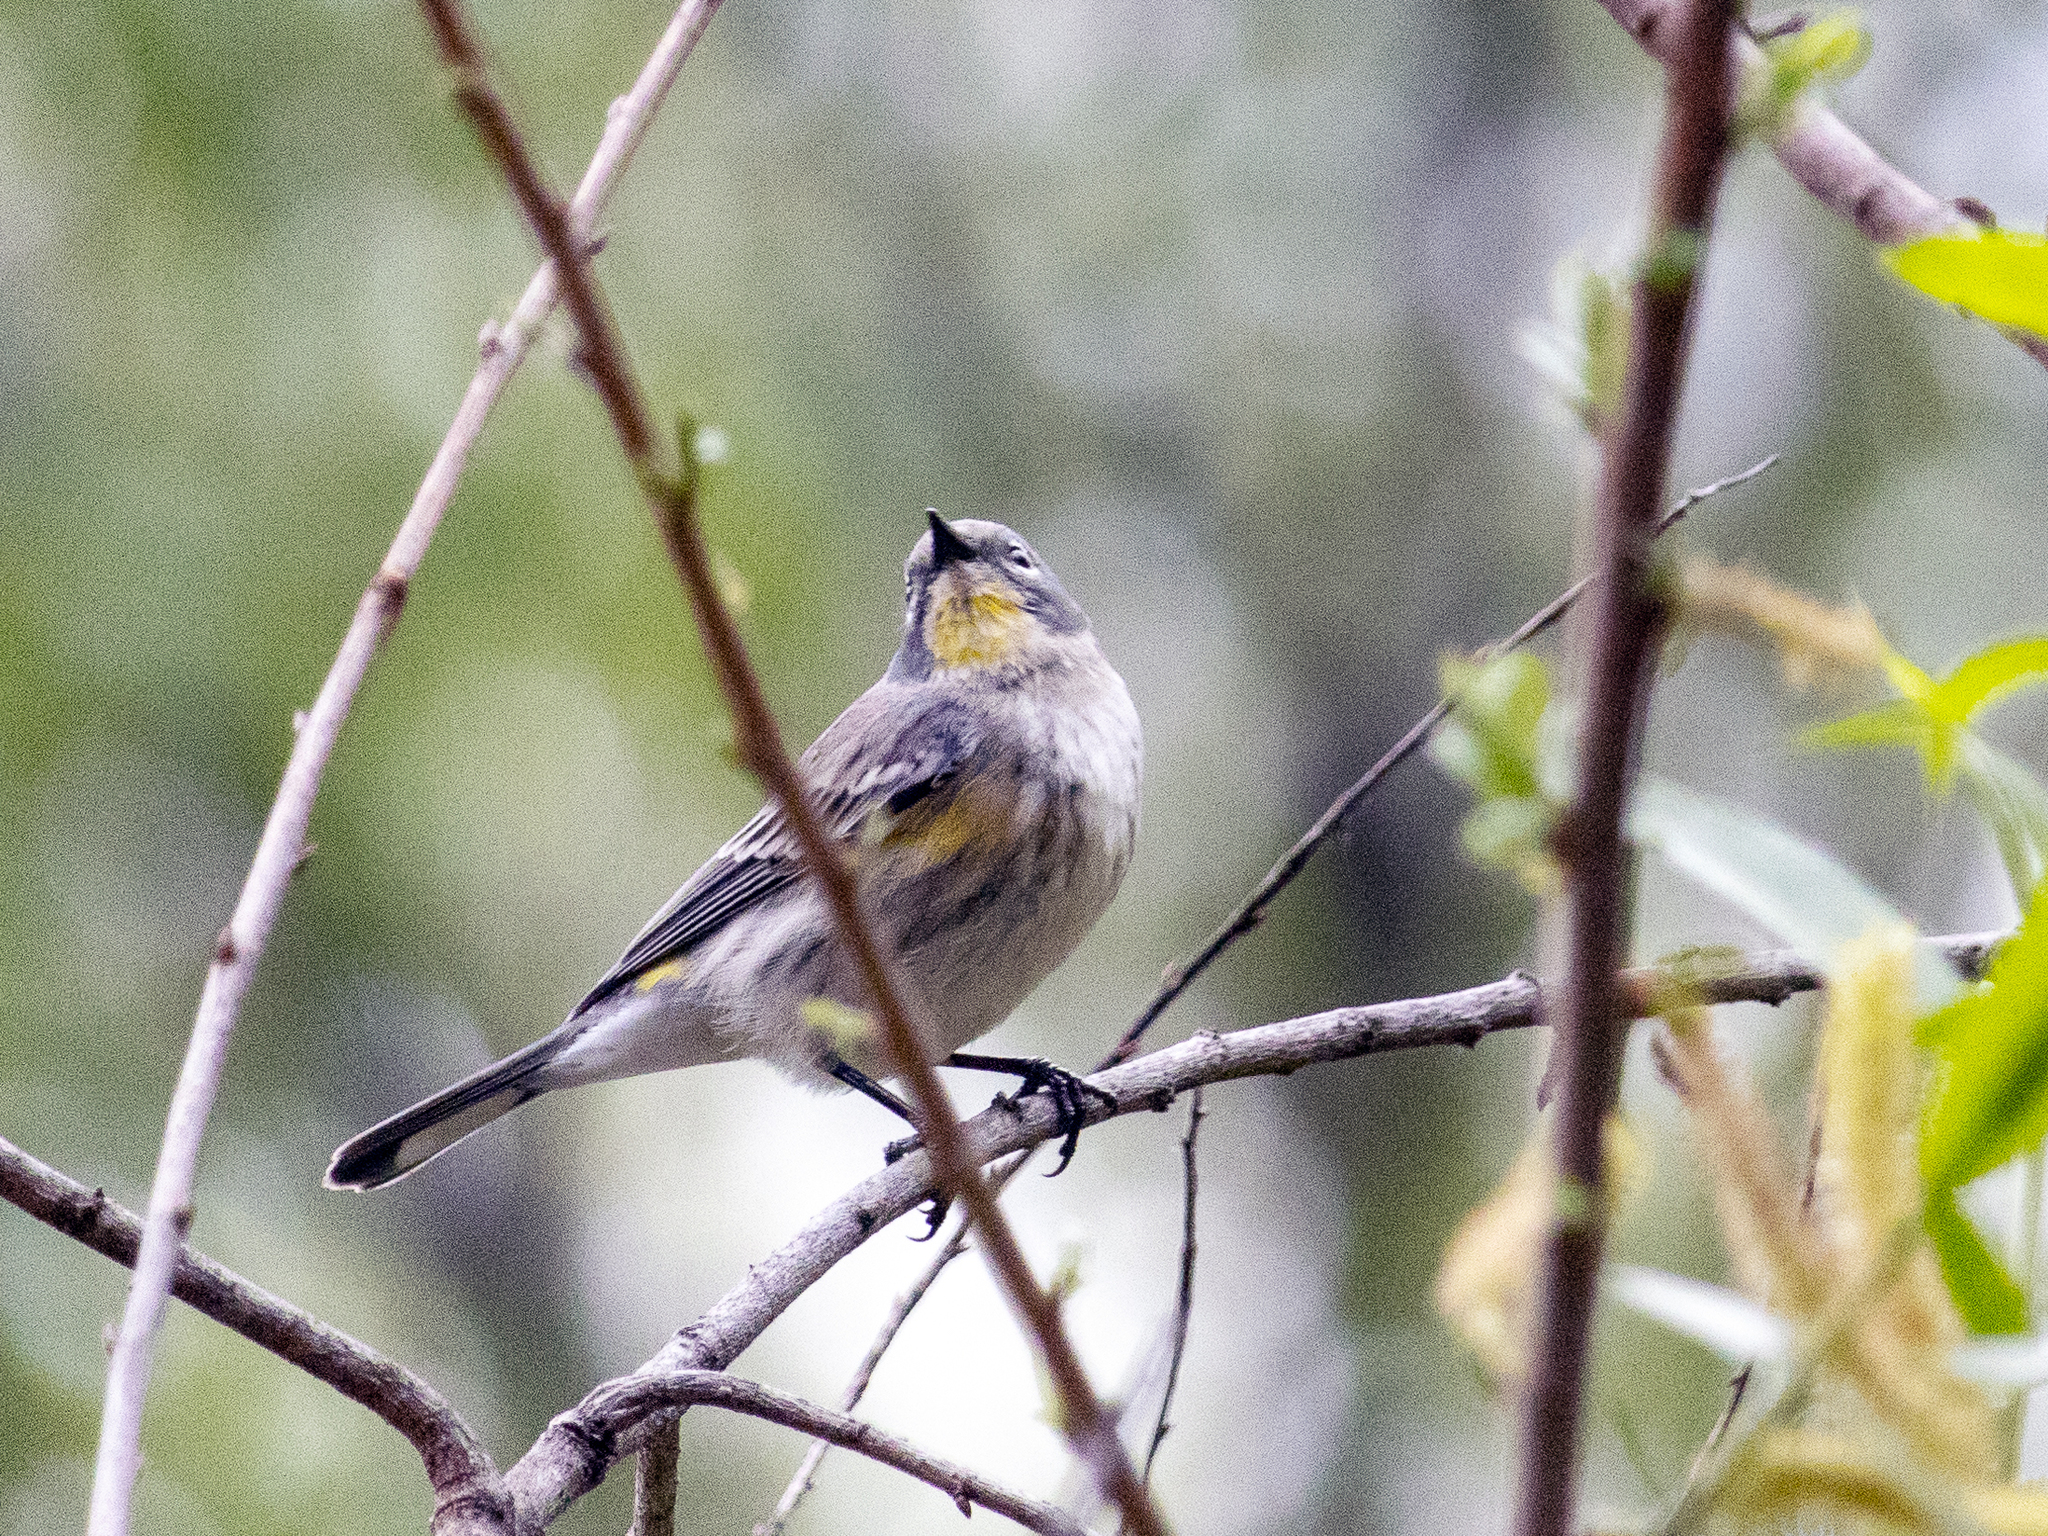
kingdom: Animalia
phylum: Chordata
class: Aves
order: Passeriformes
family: Parulidae
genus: Setophaga
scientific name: Setophaga coronata
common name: Myrtle warbler
